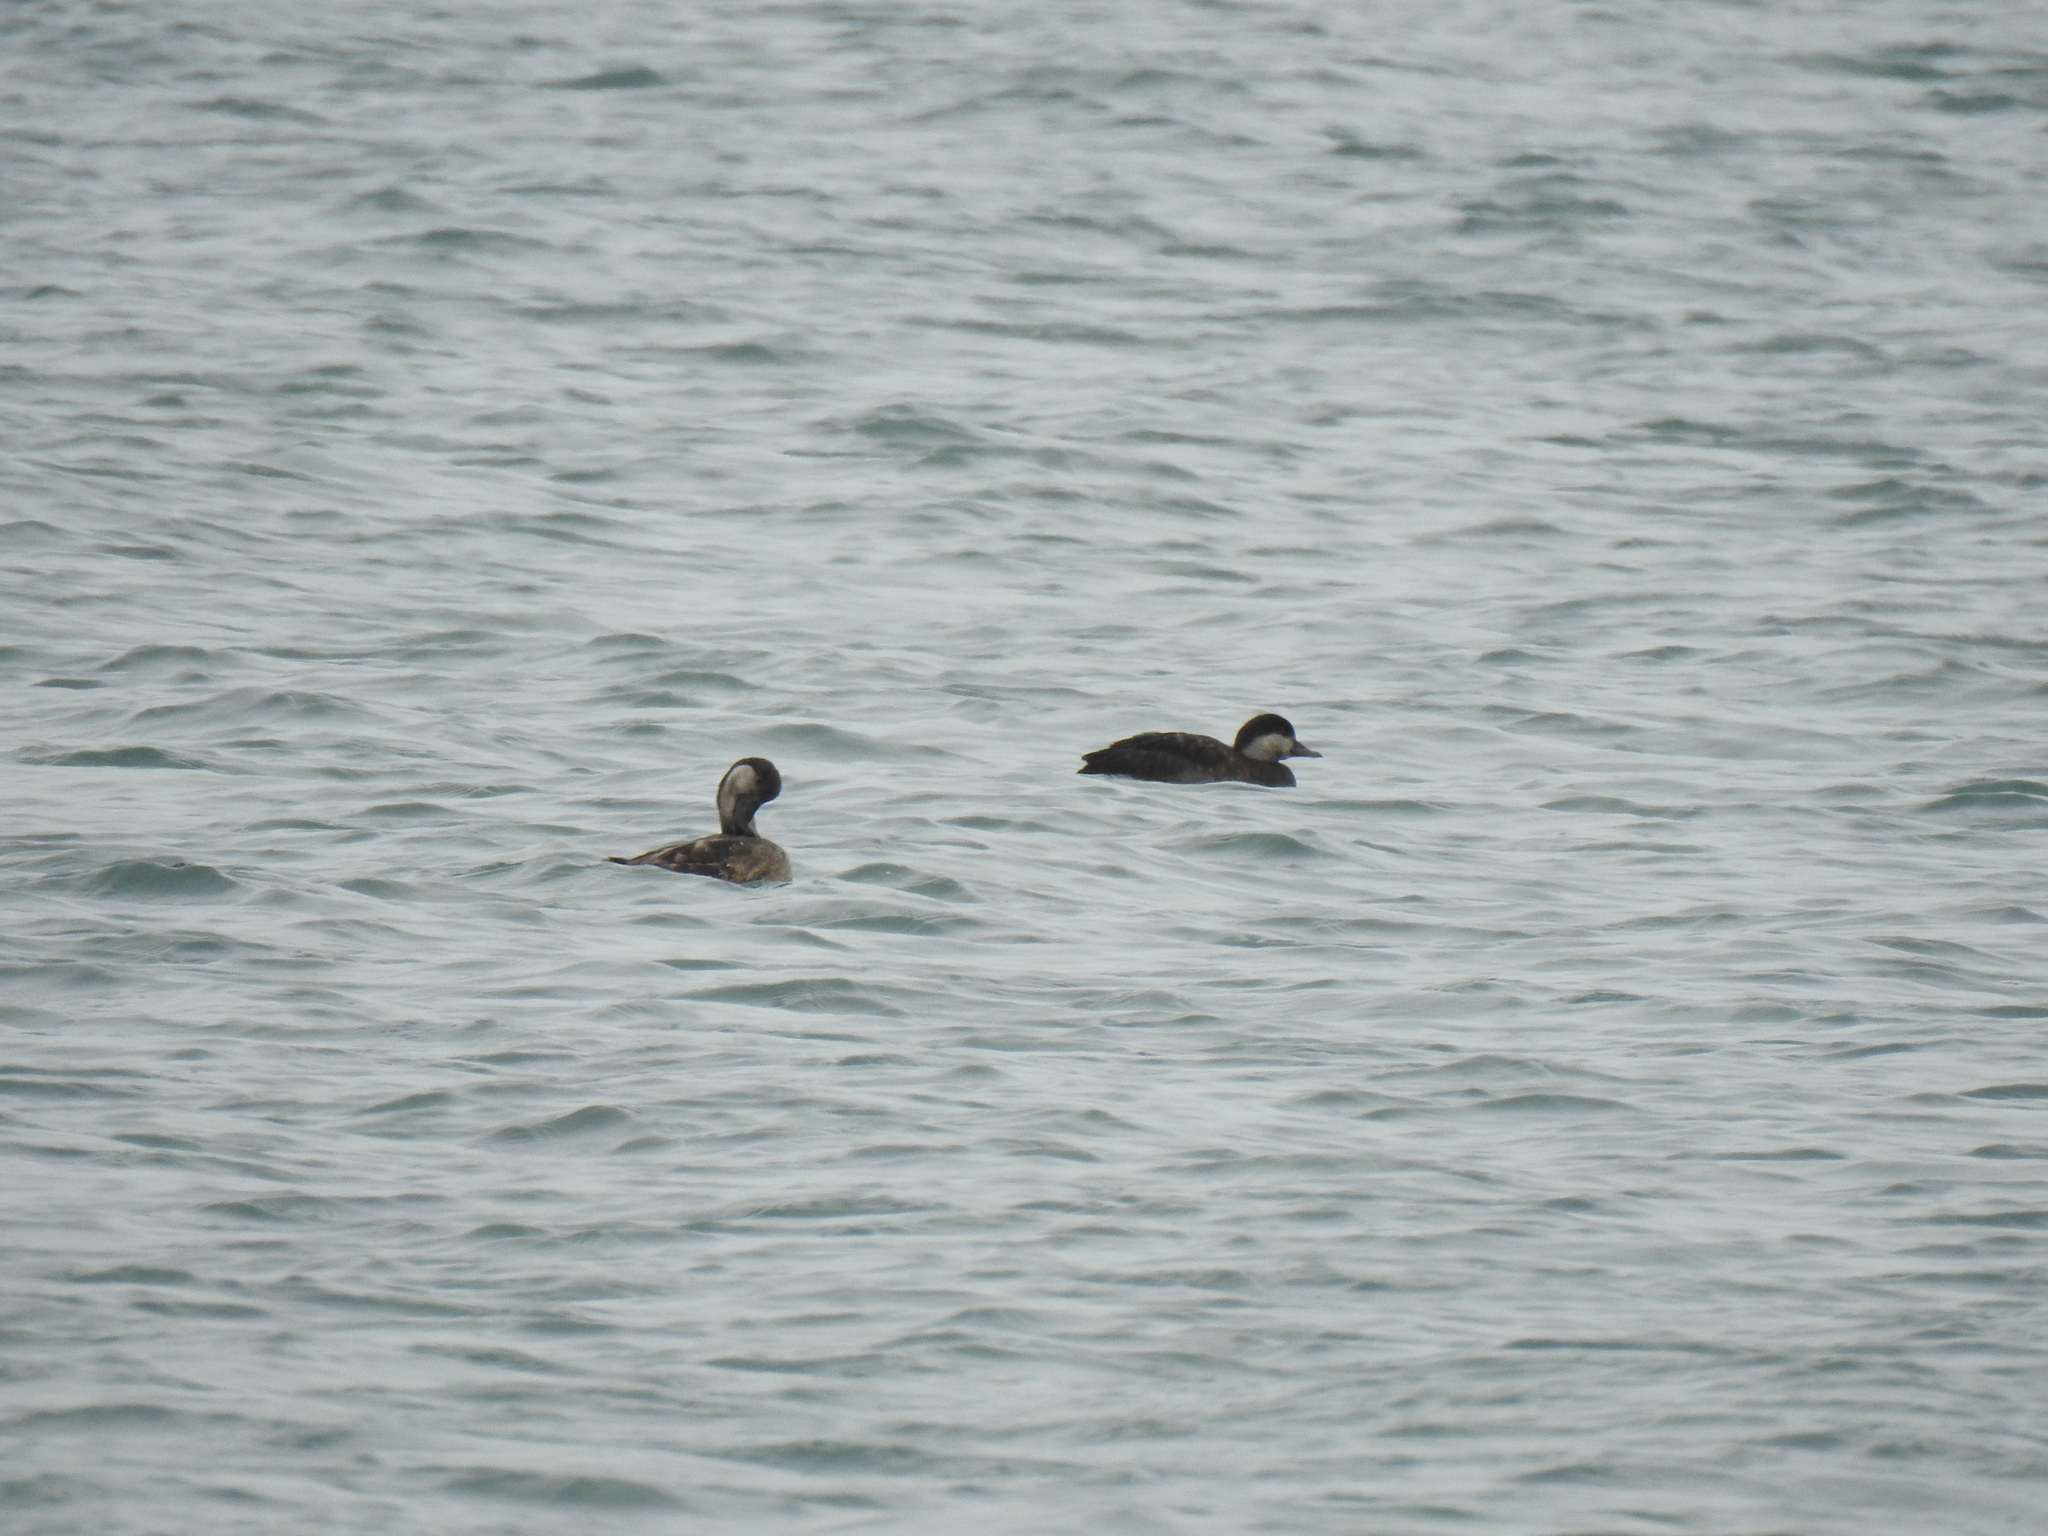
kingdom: Animalia
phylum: Chordata
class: Aves
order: Anseriformes
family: Anatidae
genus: Melanitta
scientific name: Melanitta americana
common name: Black scoter
